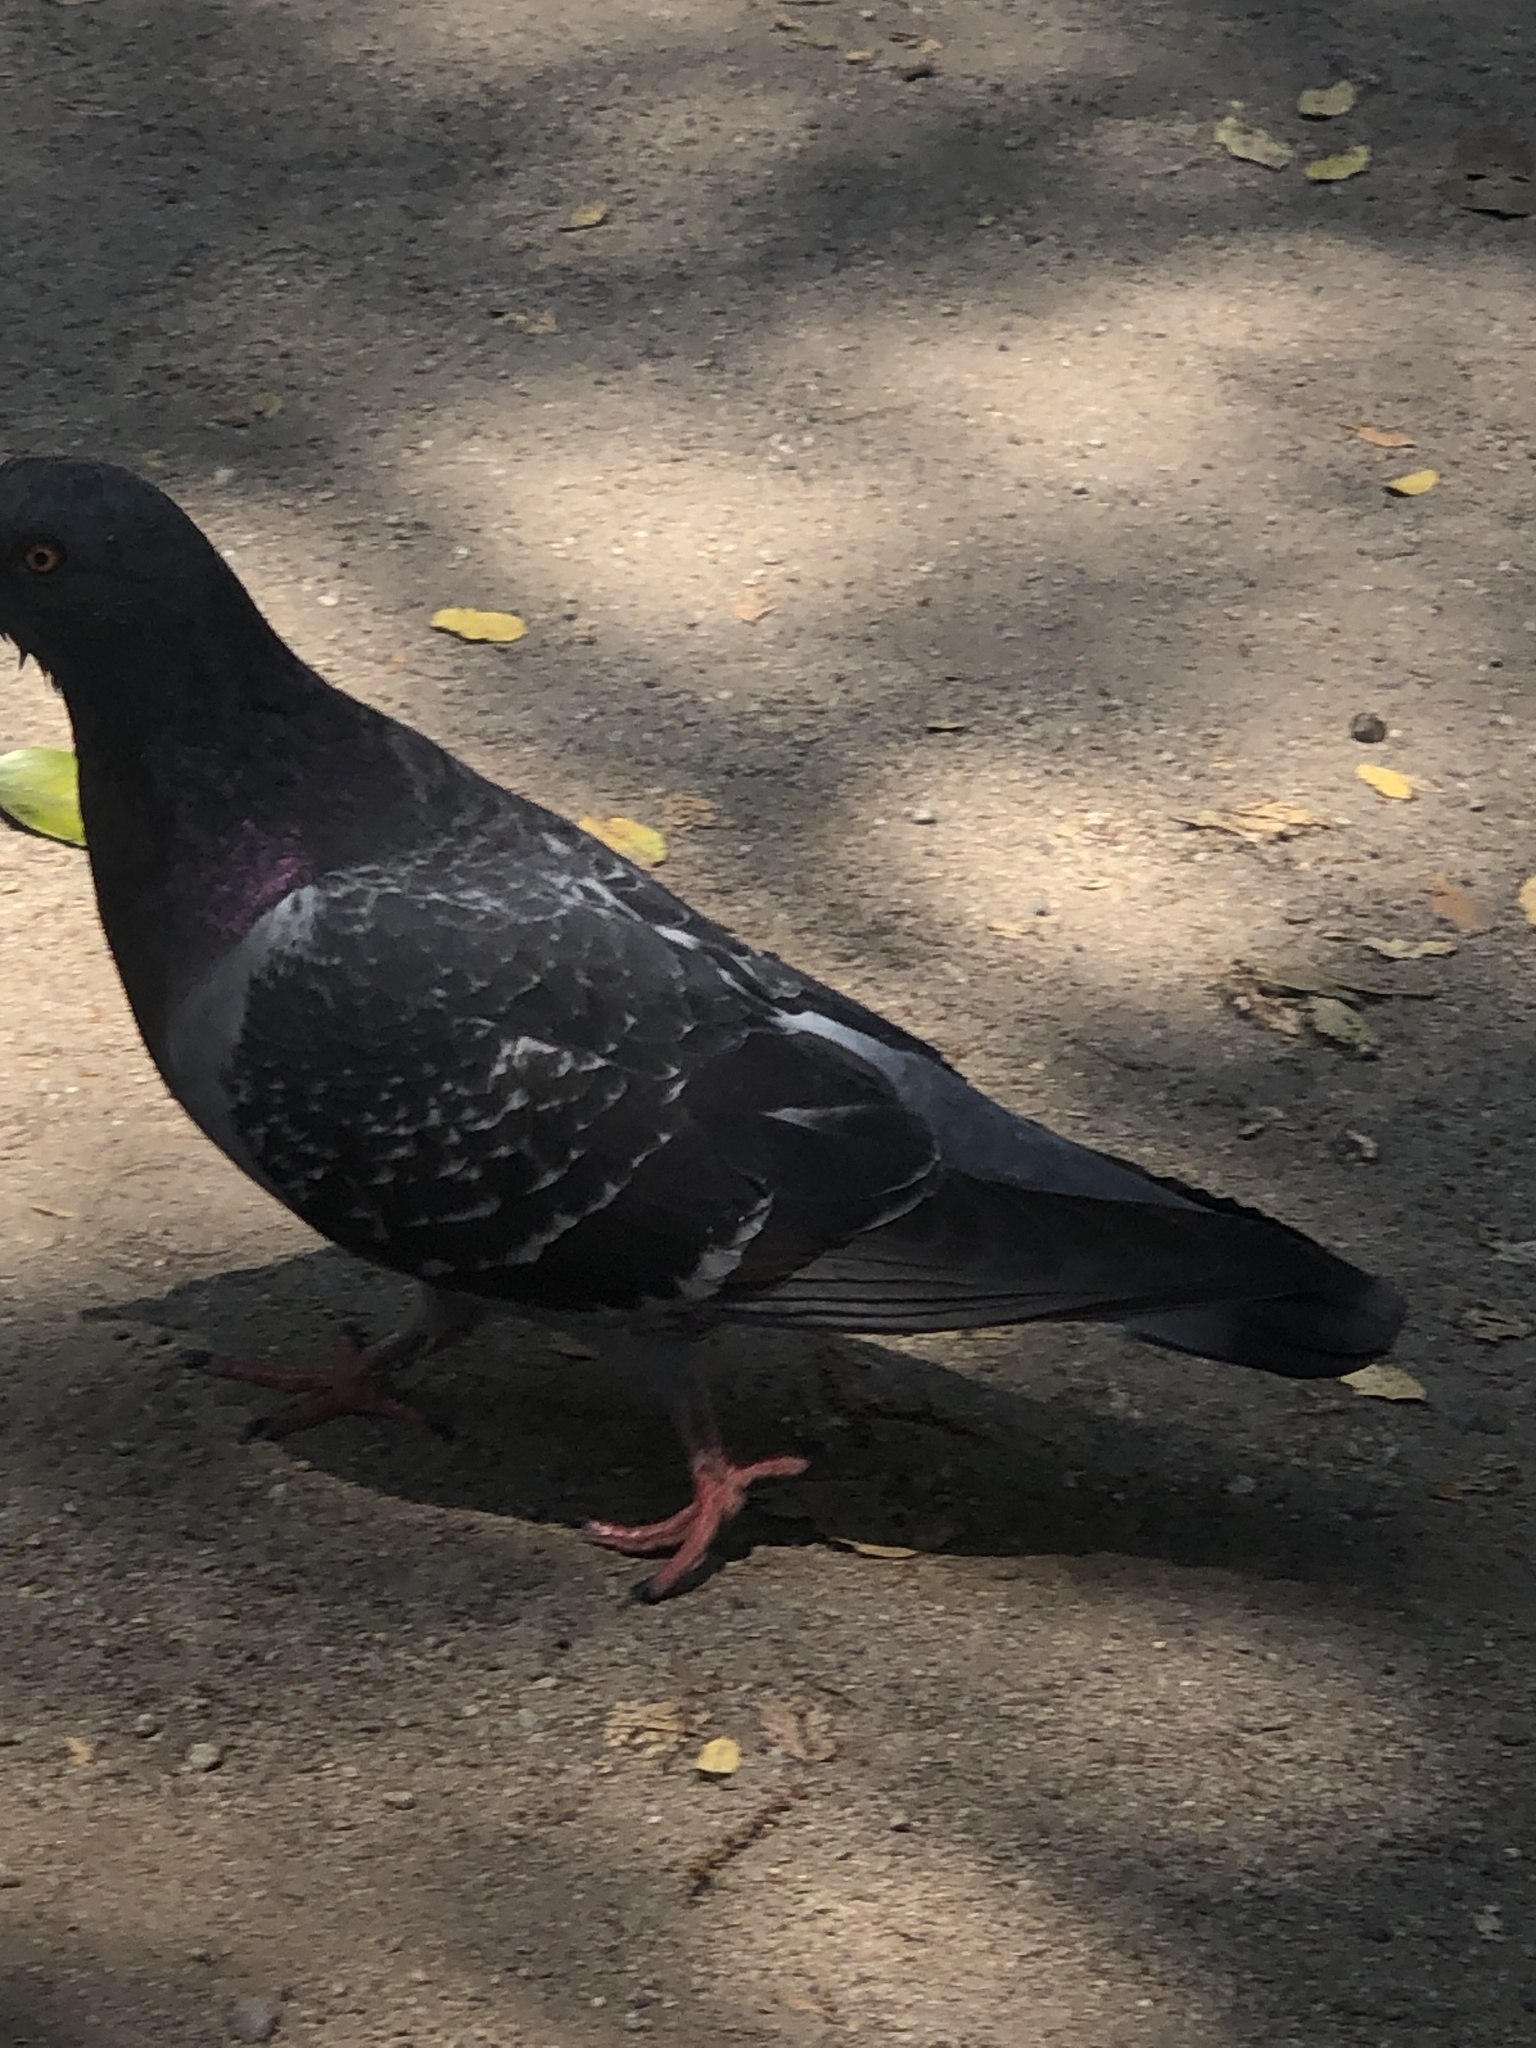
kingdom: Animalia
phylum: Chordata
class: Aves
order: Columbiformes
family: Columbidae
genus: Columba
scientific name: Columba livia
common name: Rock pigeon
